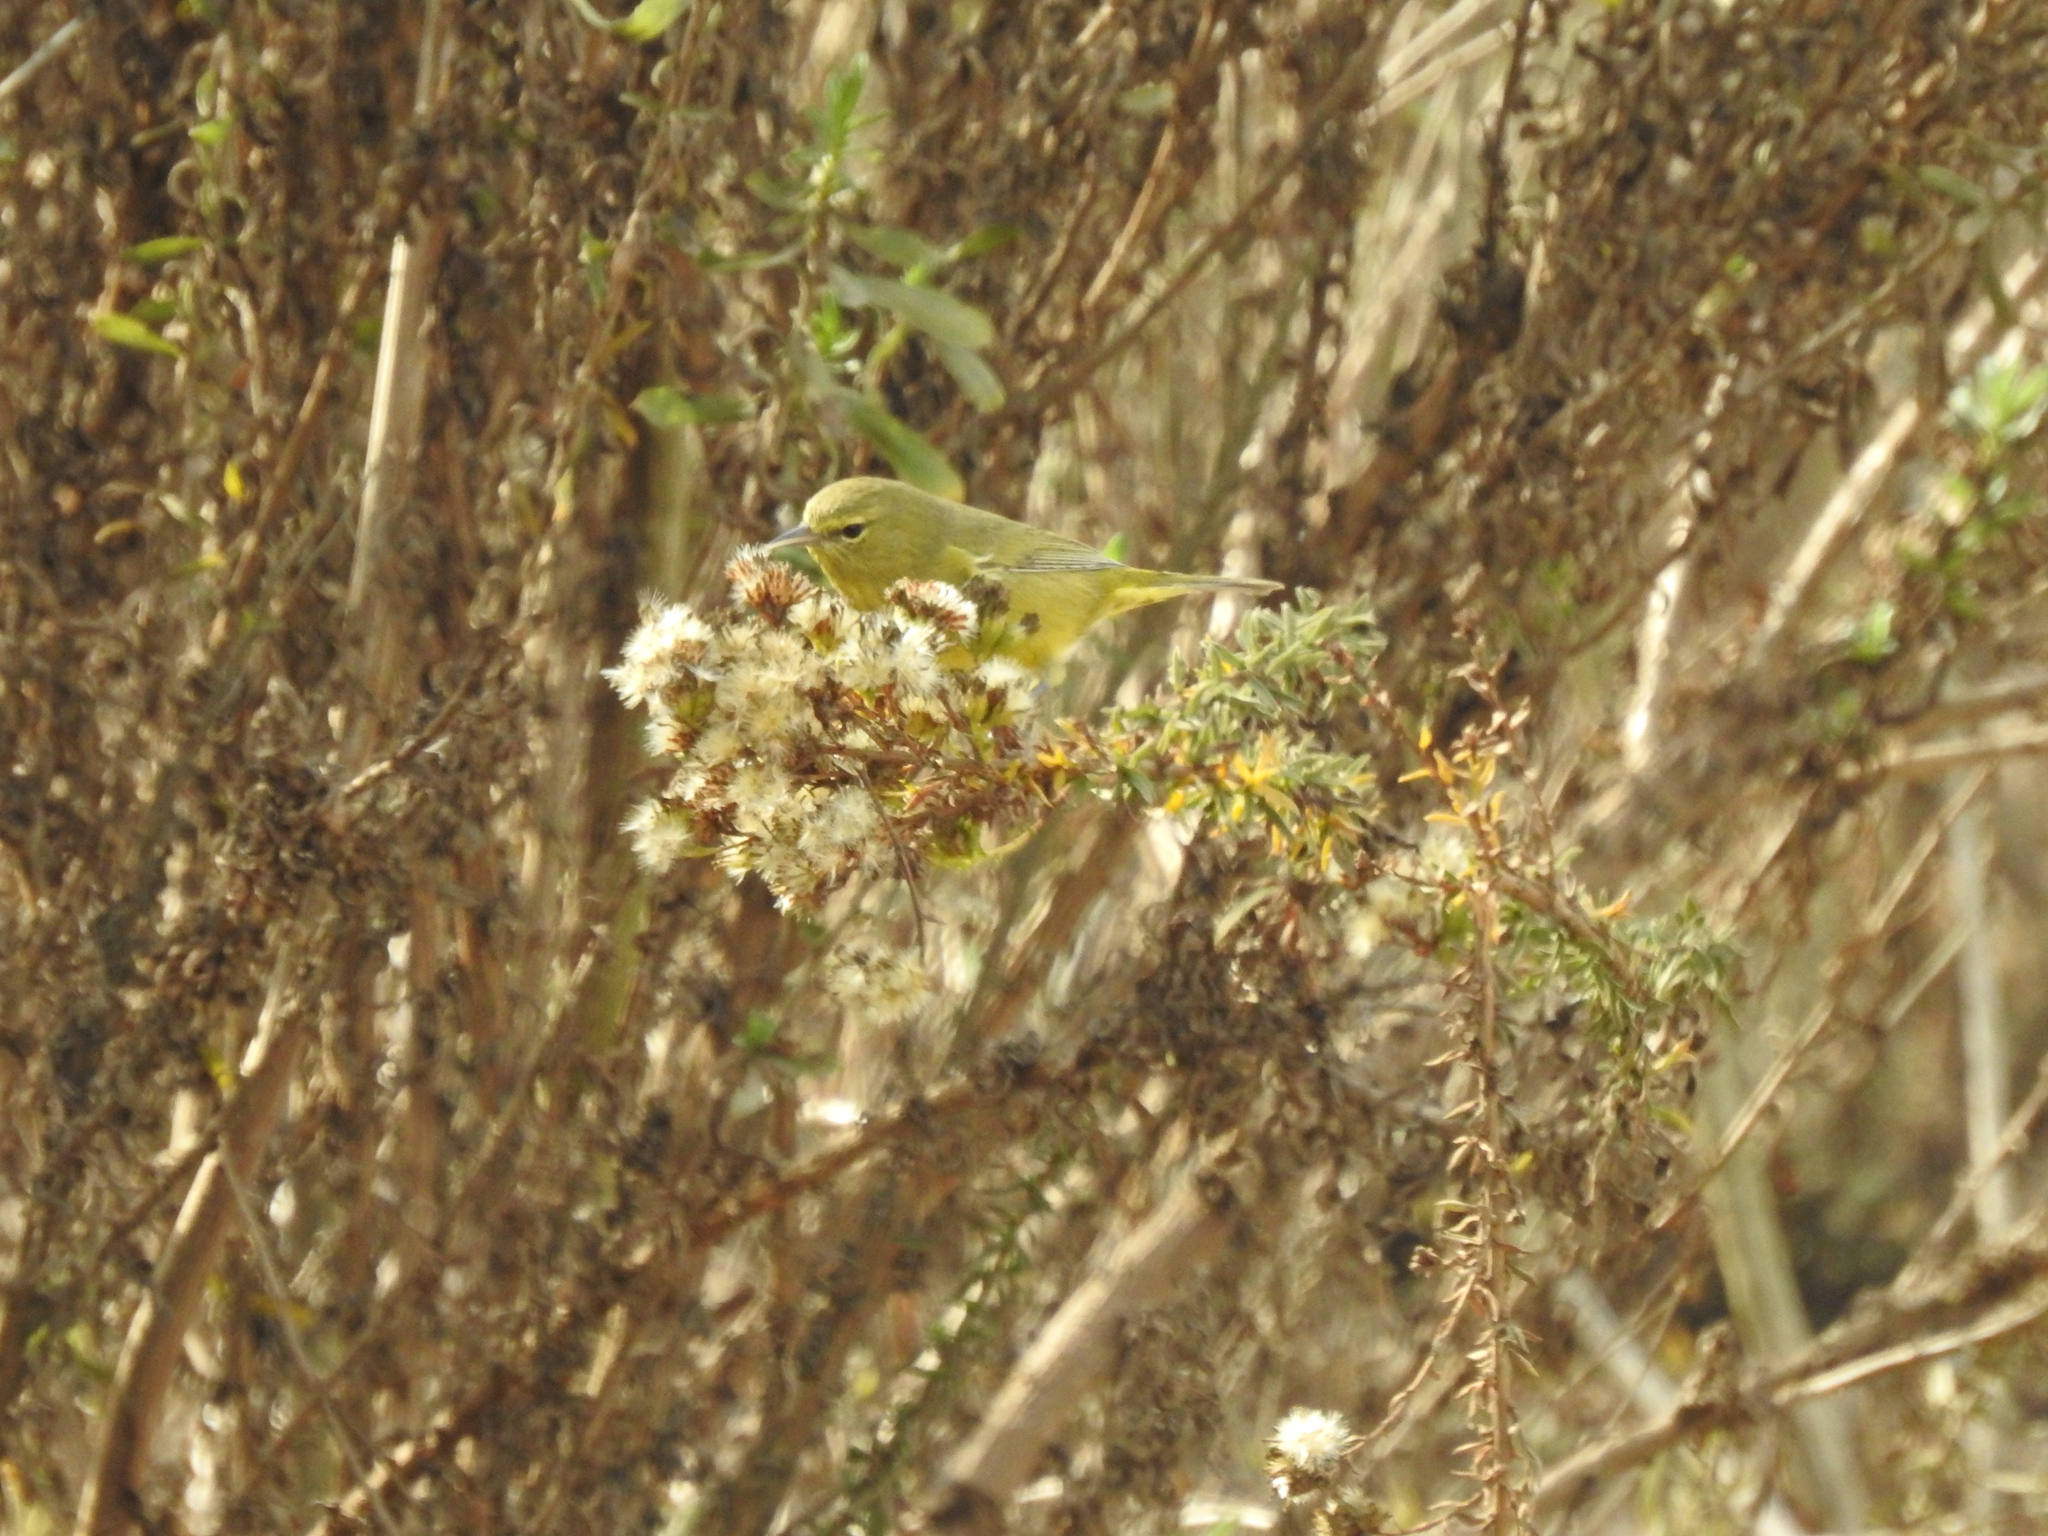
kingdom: Animalia
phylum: Chordata
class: Aves
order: Passeriformes
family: Parulidae
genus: Leiothlypis
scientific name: Leiothlypis celata
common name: Orange-crowned warbler
